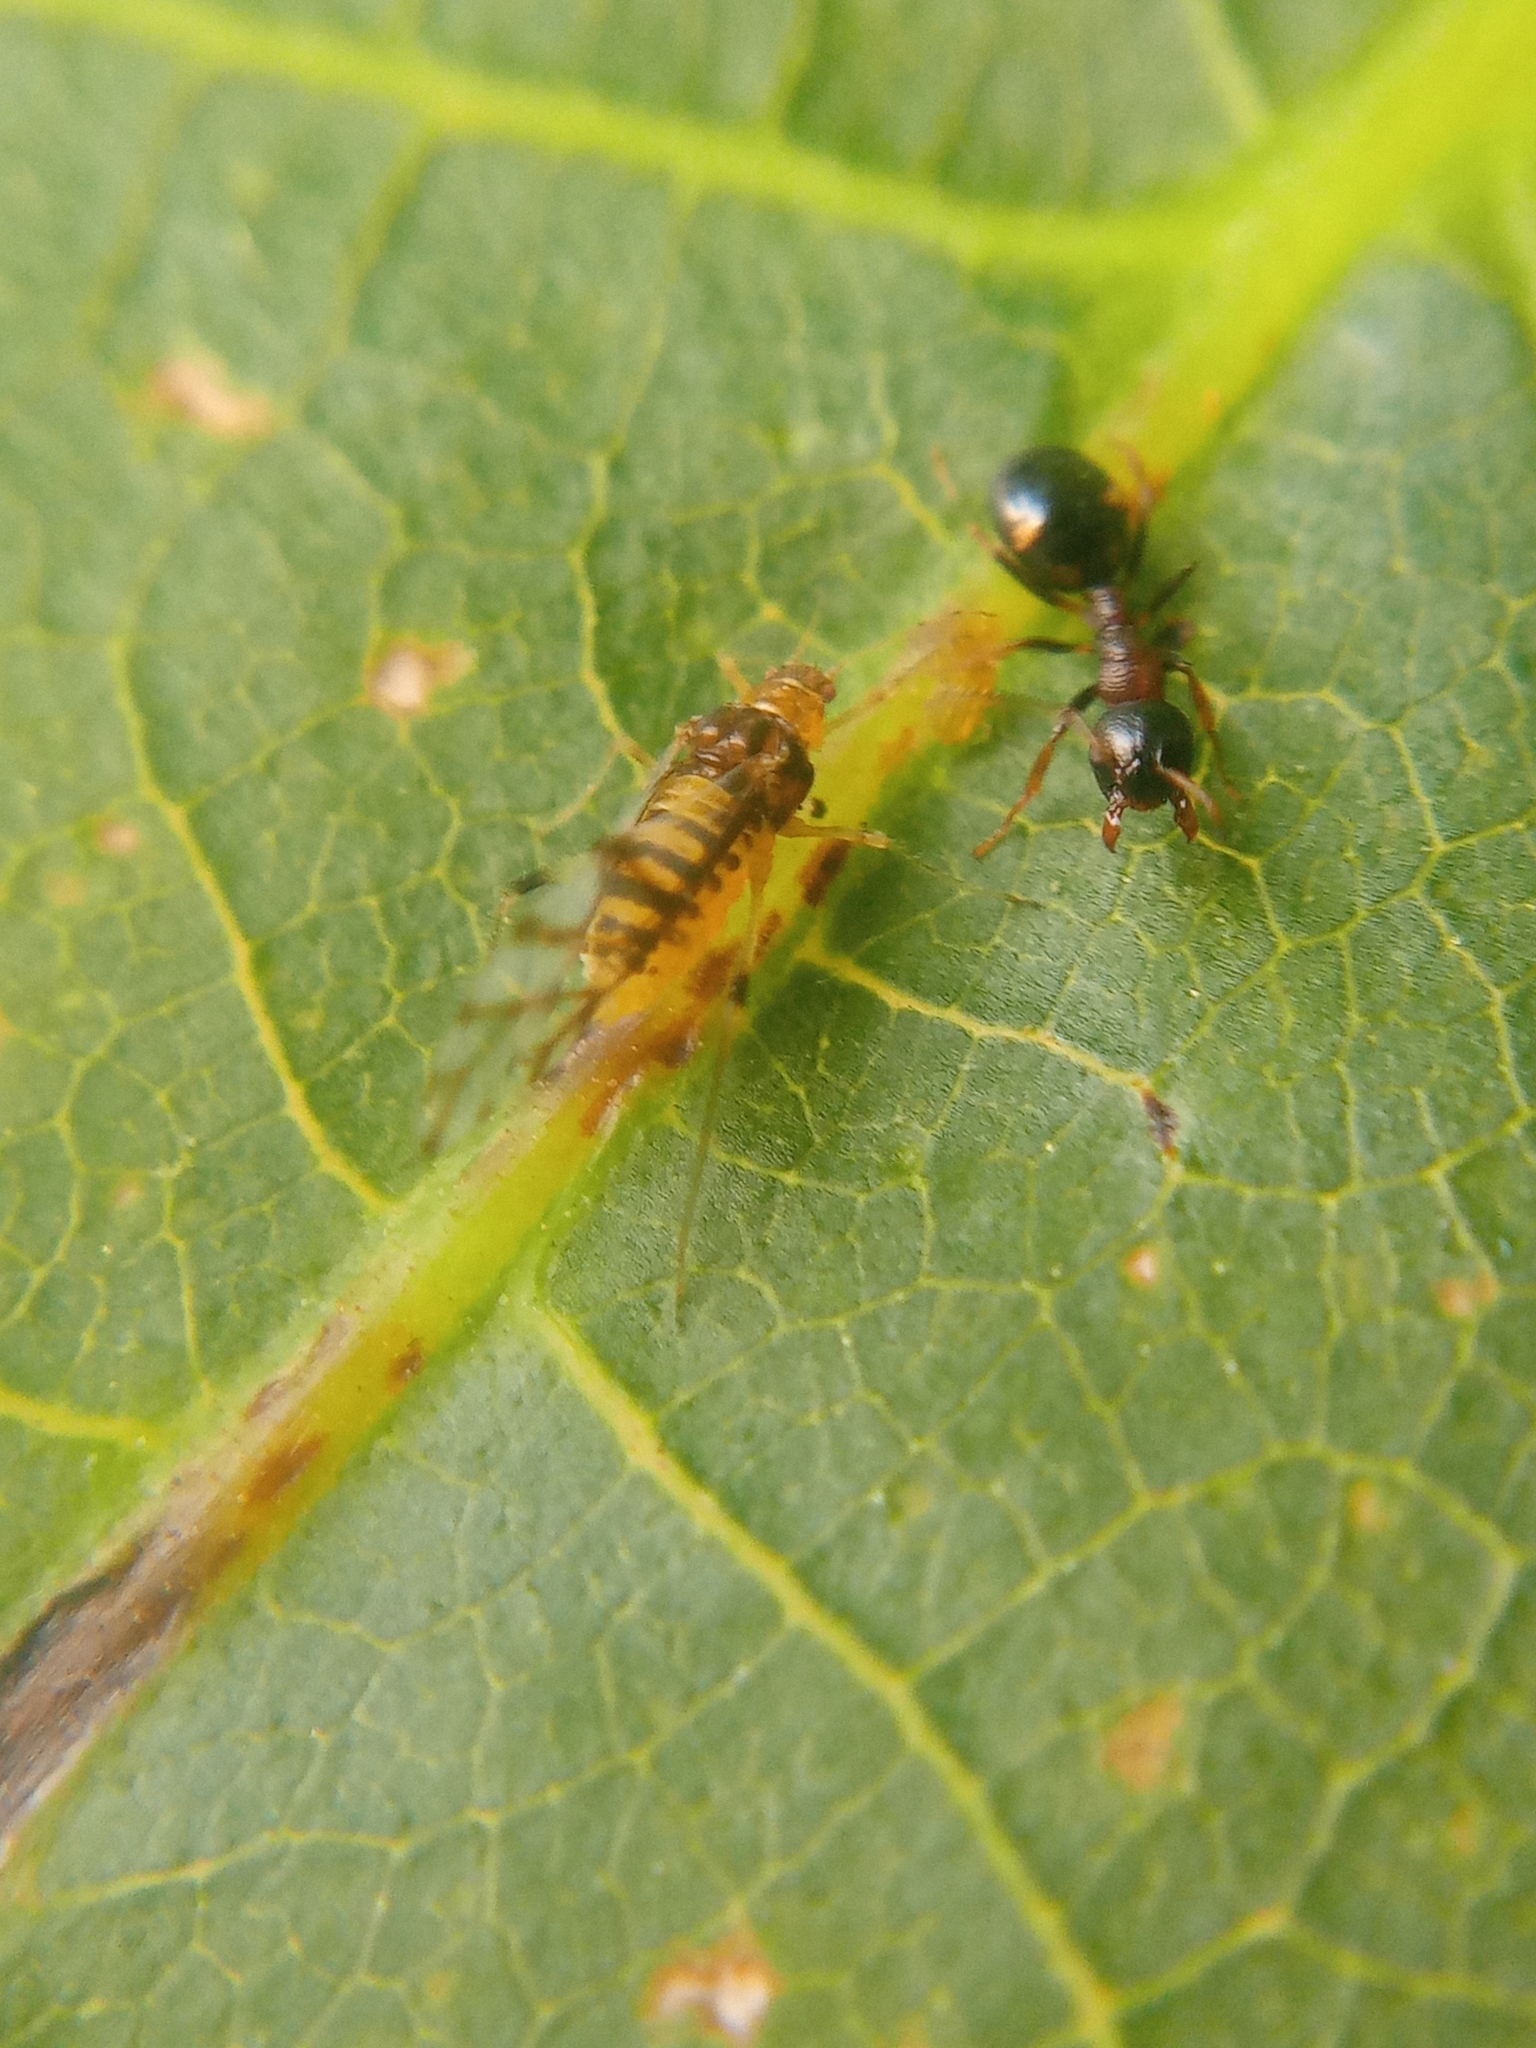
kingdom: Animalia
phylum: Arthropoda
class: Insecta
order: Hemiptera
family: Aphididae
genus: Panaphis
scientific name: Panaphis juglandis
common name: Large walnut aphid
